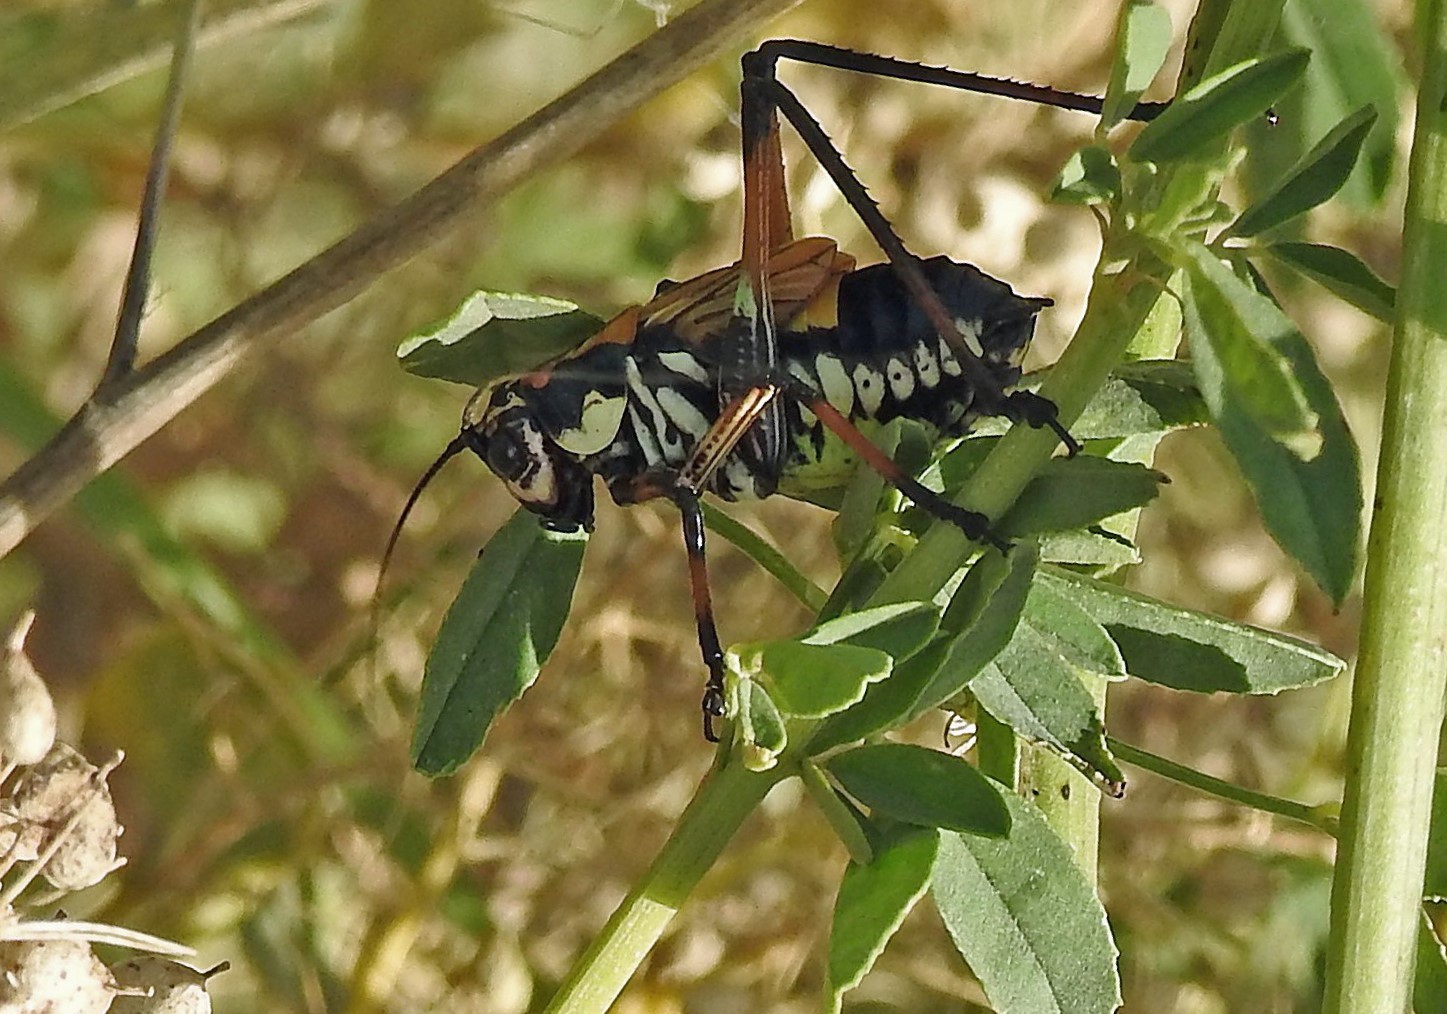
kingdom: Animalia
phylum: Arthropoda
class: Insecta
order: Orthoptera
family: Tettigoniidae
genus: Scaphura
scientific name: Scaphura elegans
